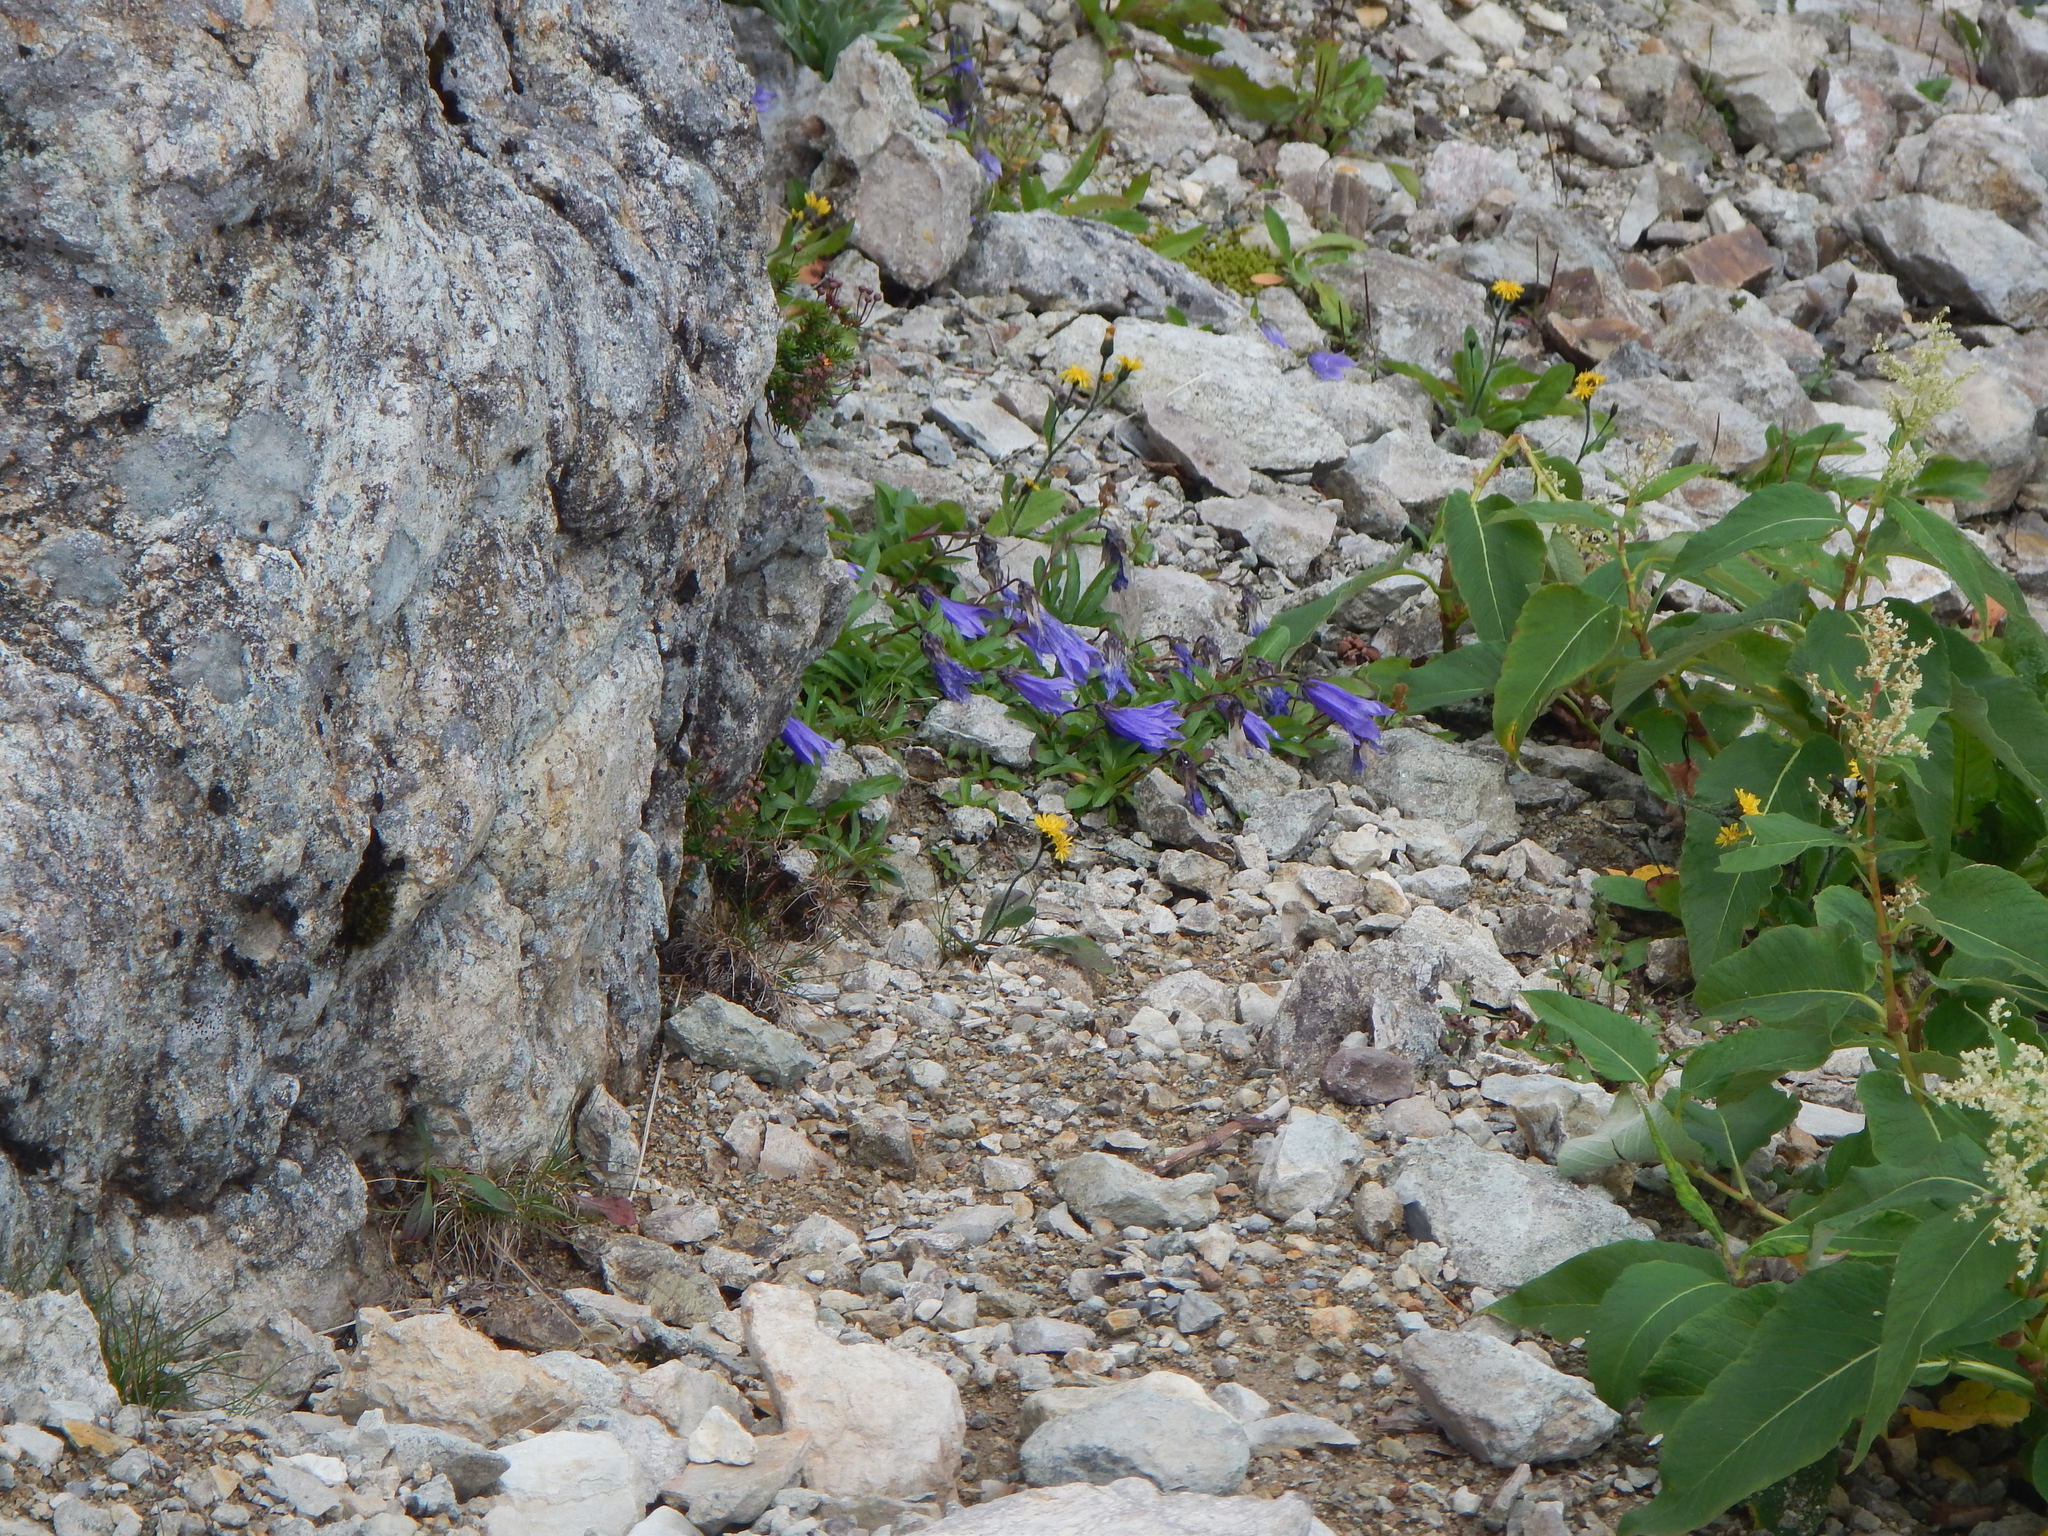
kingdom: Plantae
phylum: Tracheophyta
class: Magnoliopsida
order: Asterales
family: Campanulaceae
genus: Campanula
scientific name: Campanula dasyantha
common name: Hairyflower bellflower
